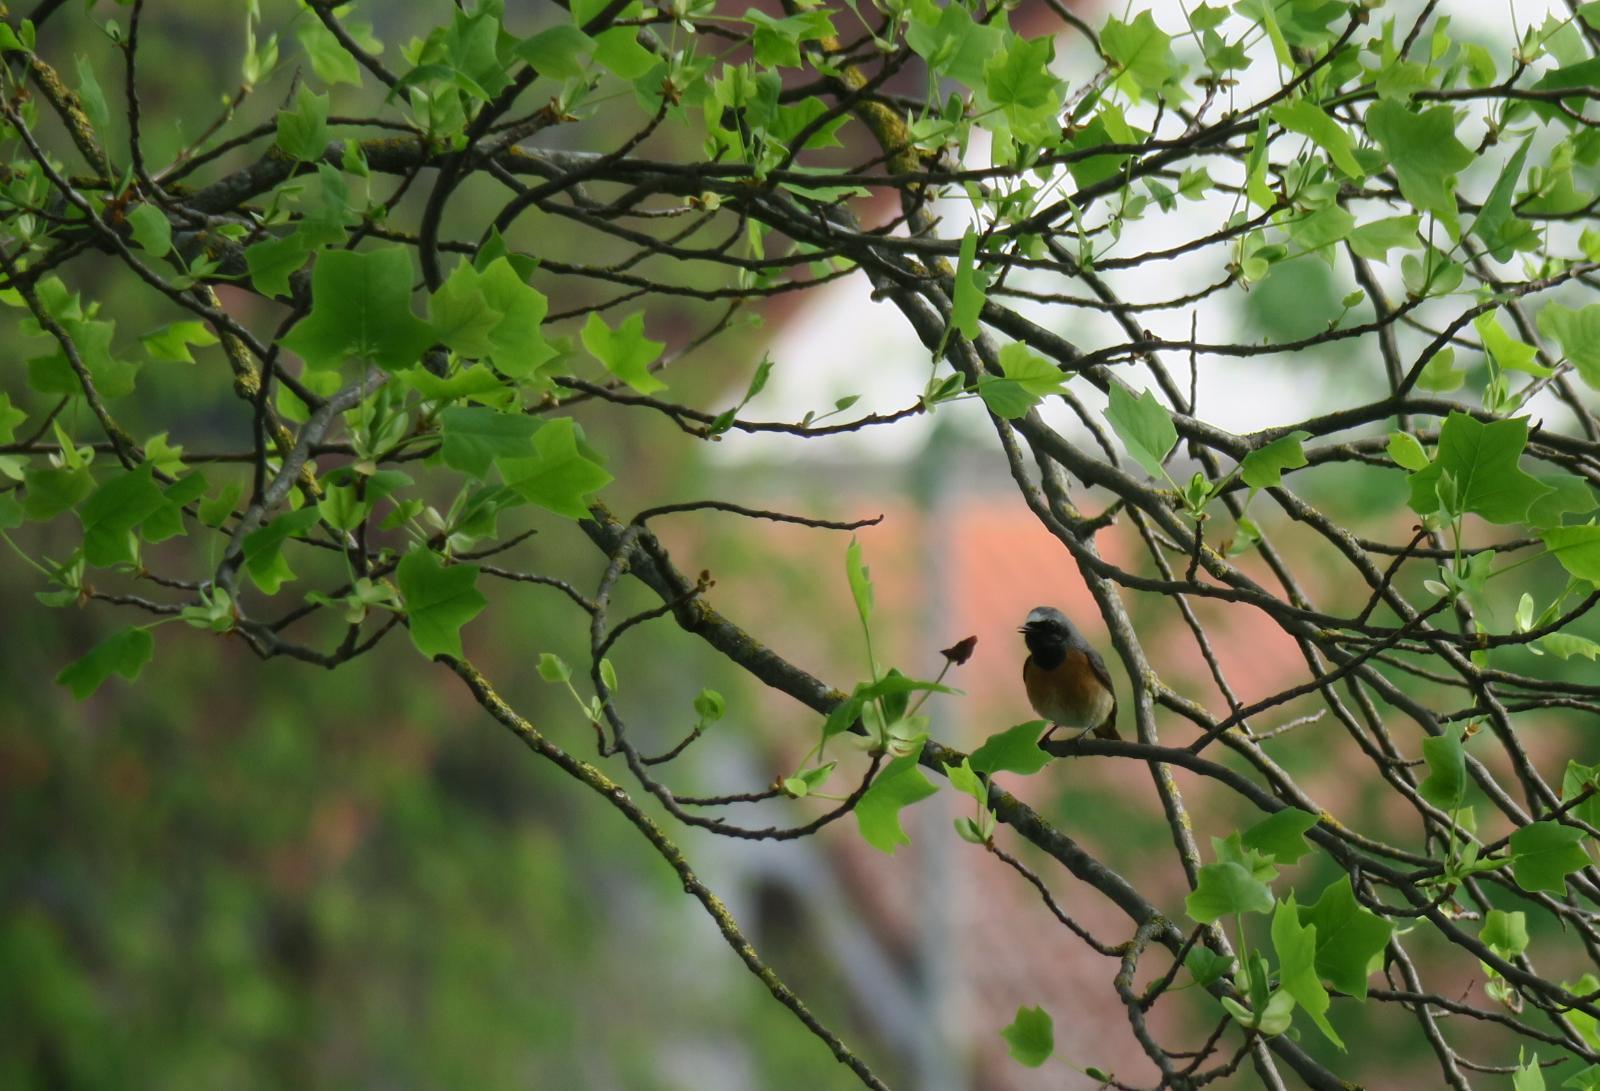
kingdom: Animalia
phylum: Chordata
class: Aves
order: Passeriformes
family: Muscicapidae
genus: Phoenicurus
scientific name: Phoenicurus phoenicurus
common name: Common redstart
